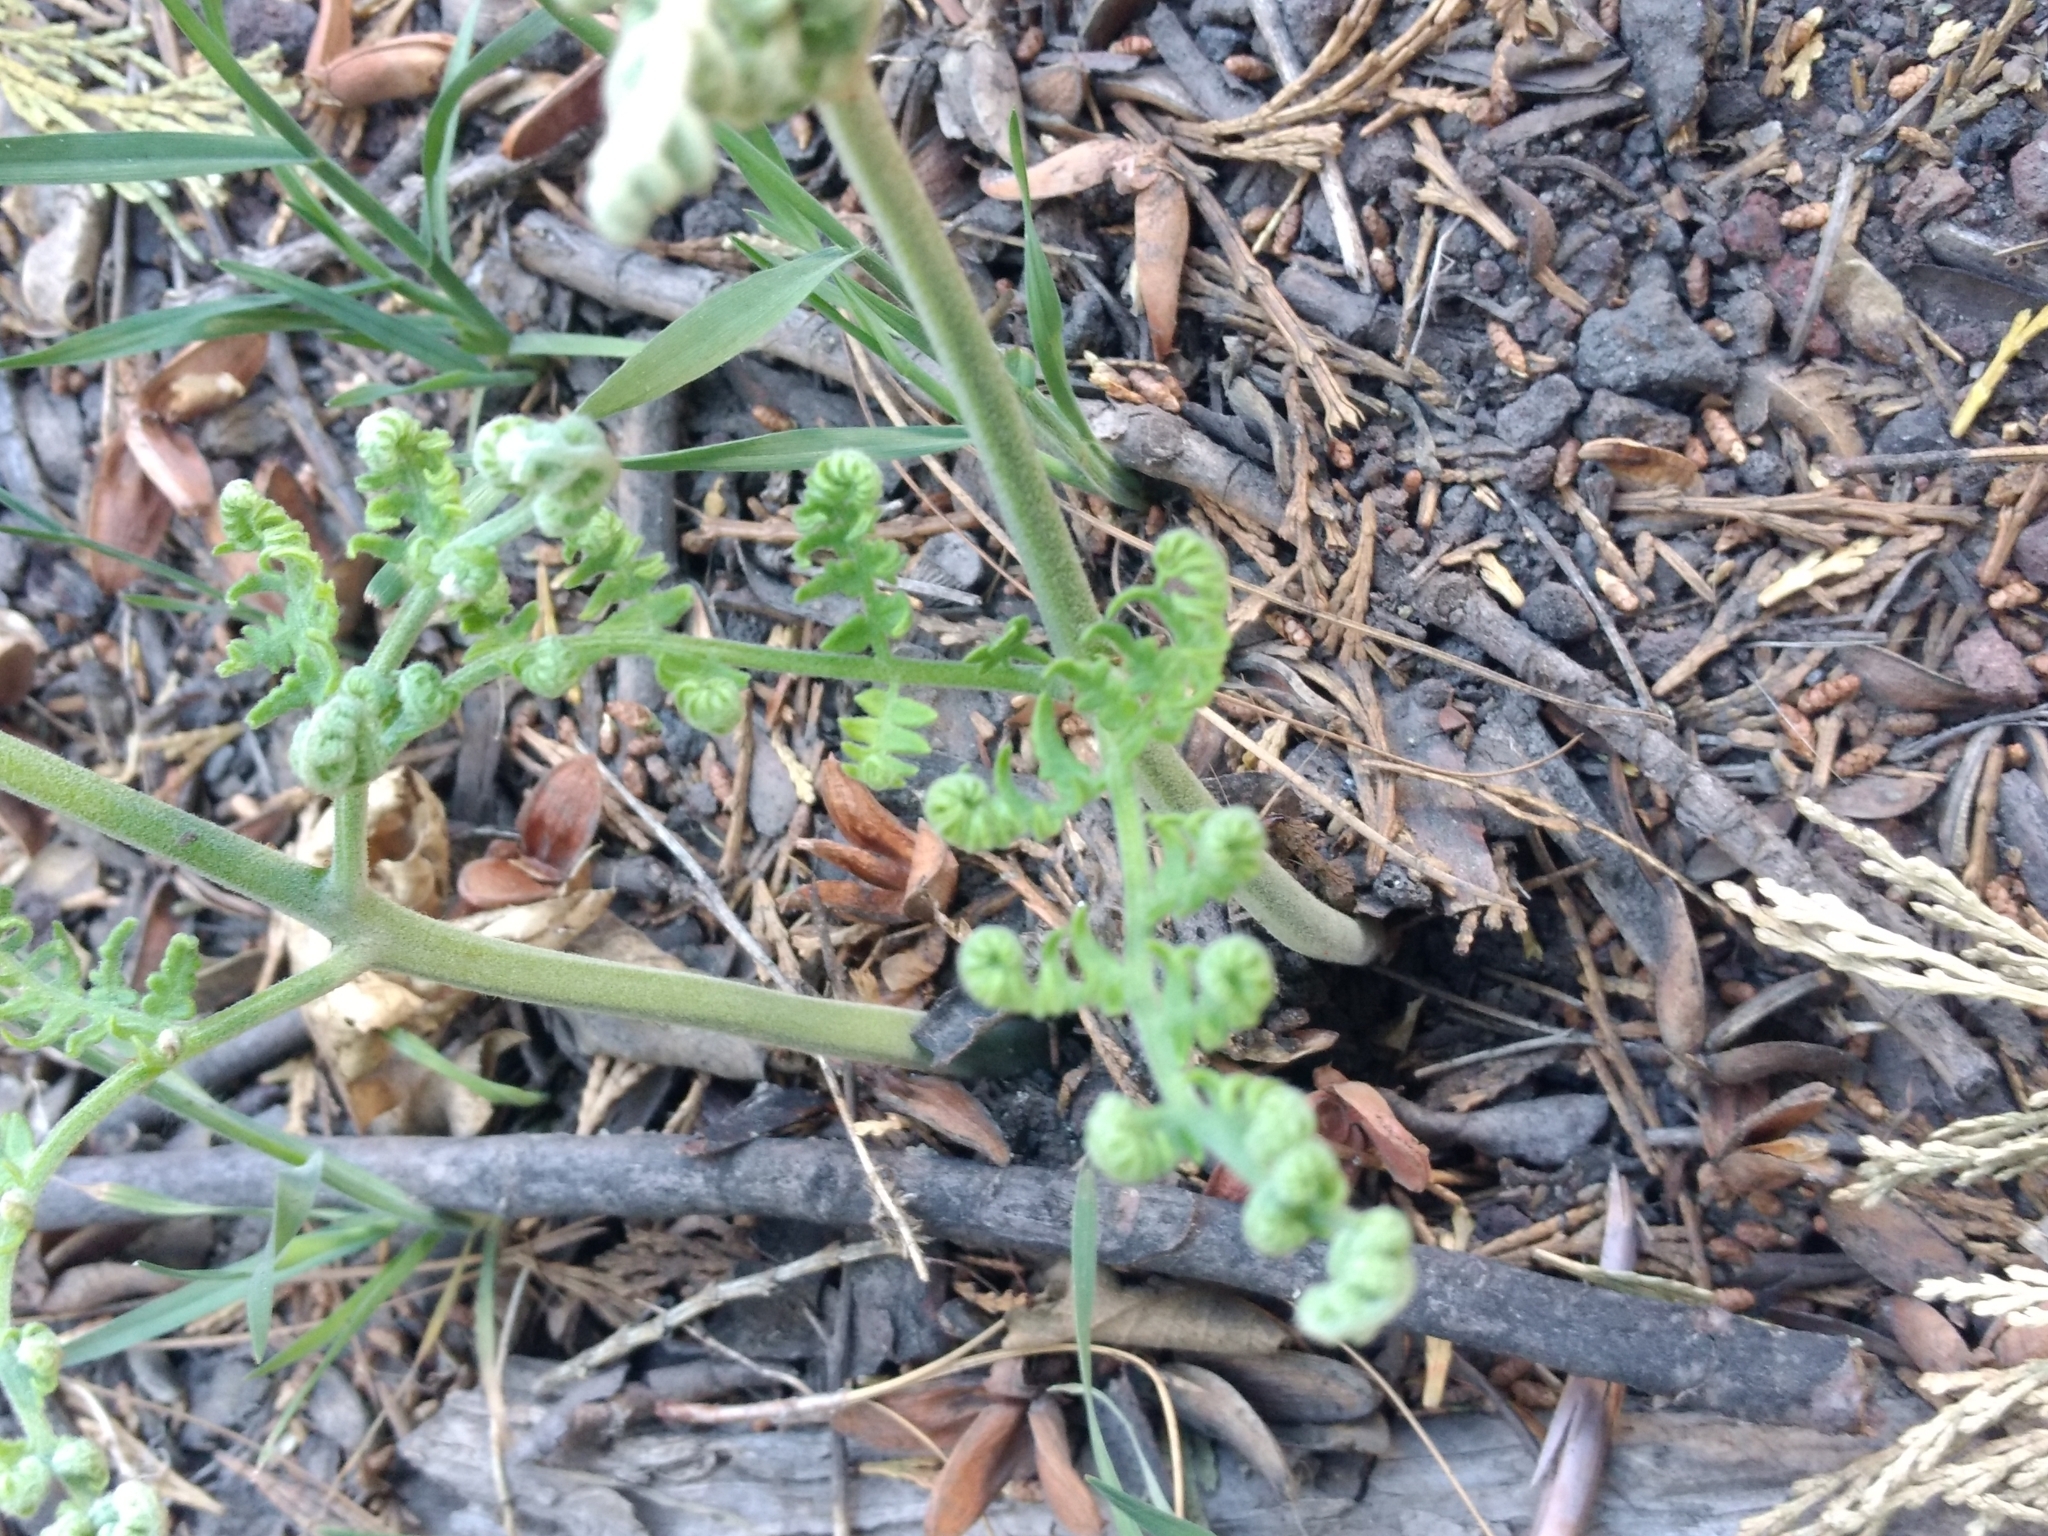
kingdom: Plantae
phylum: Tracheophyta
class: Polypodiopsida
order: Polypodiales
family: Dennstaedtiaceae
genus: Pteridium
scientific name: Pteridium aquilinum
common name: Bracken
